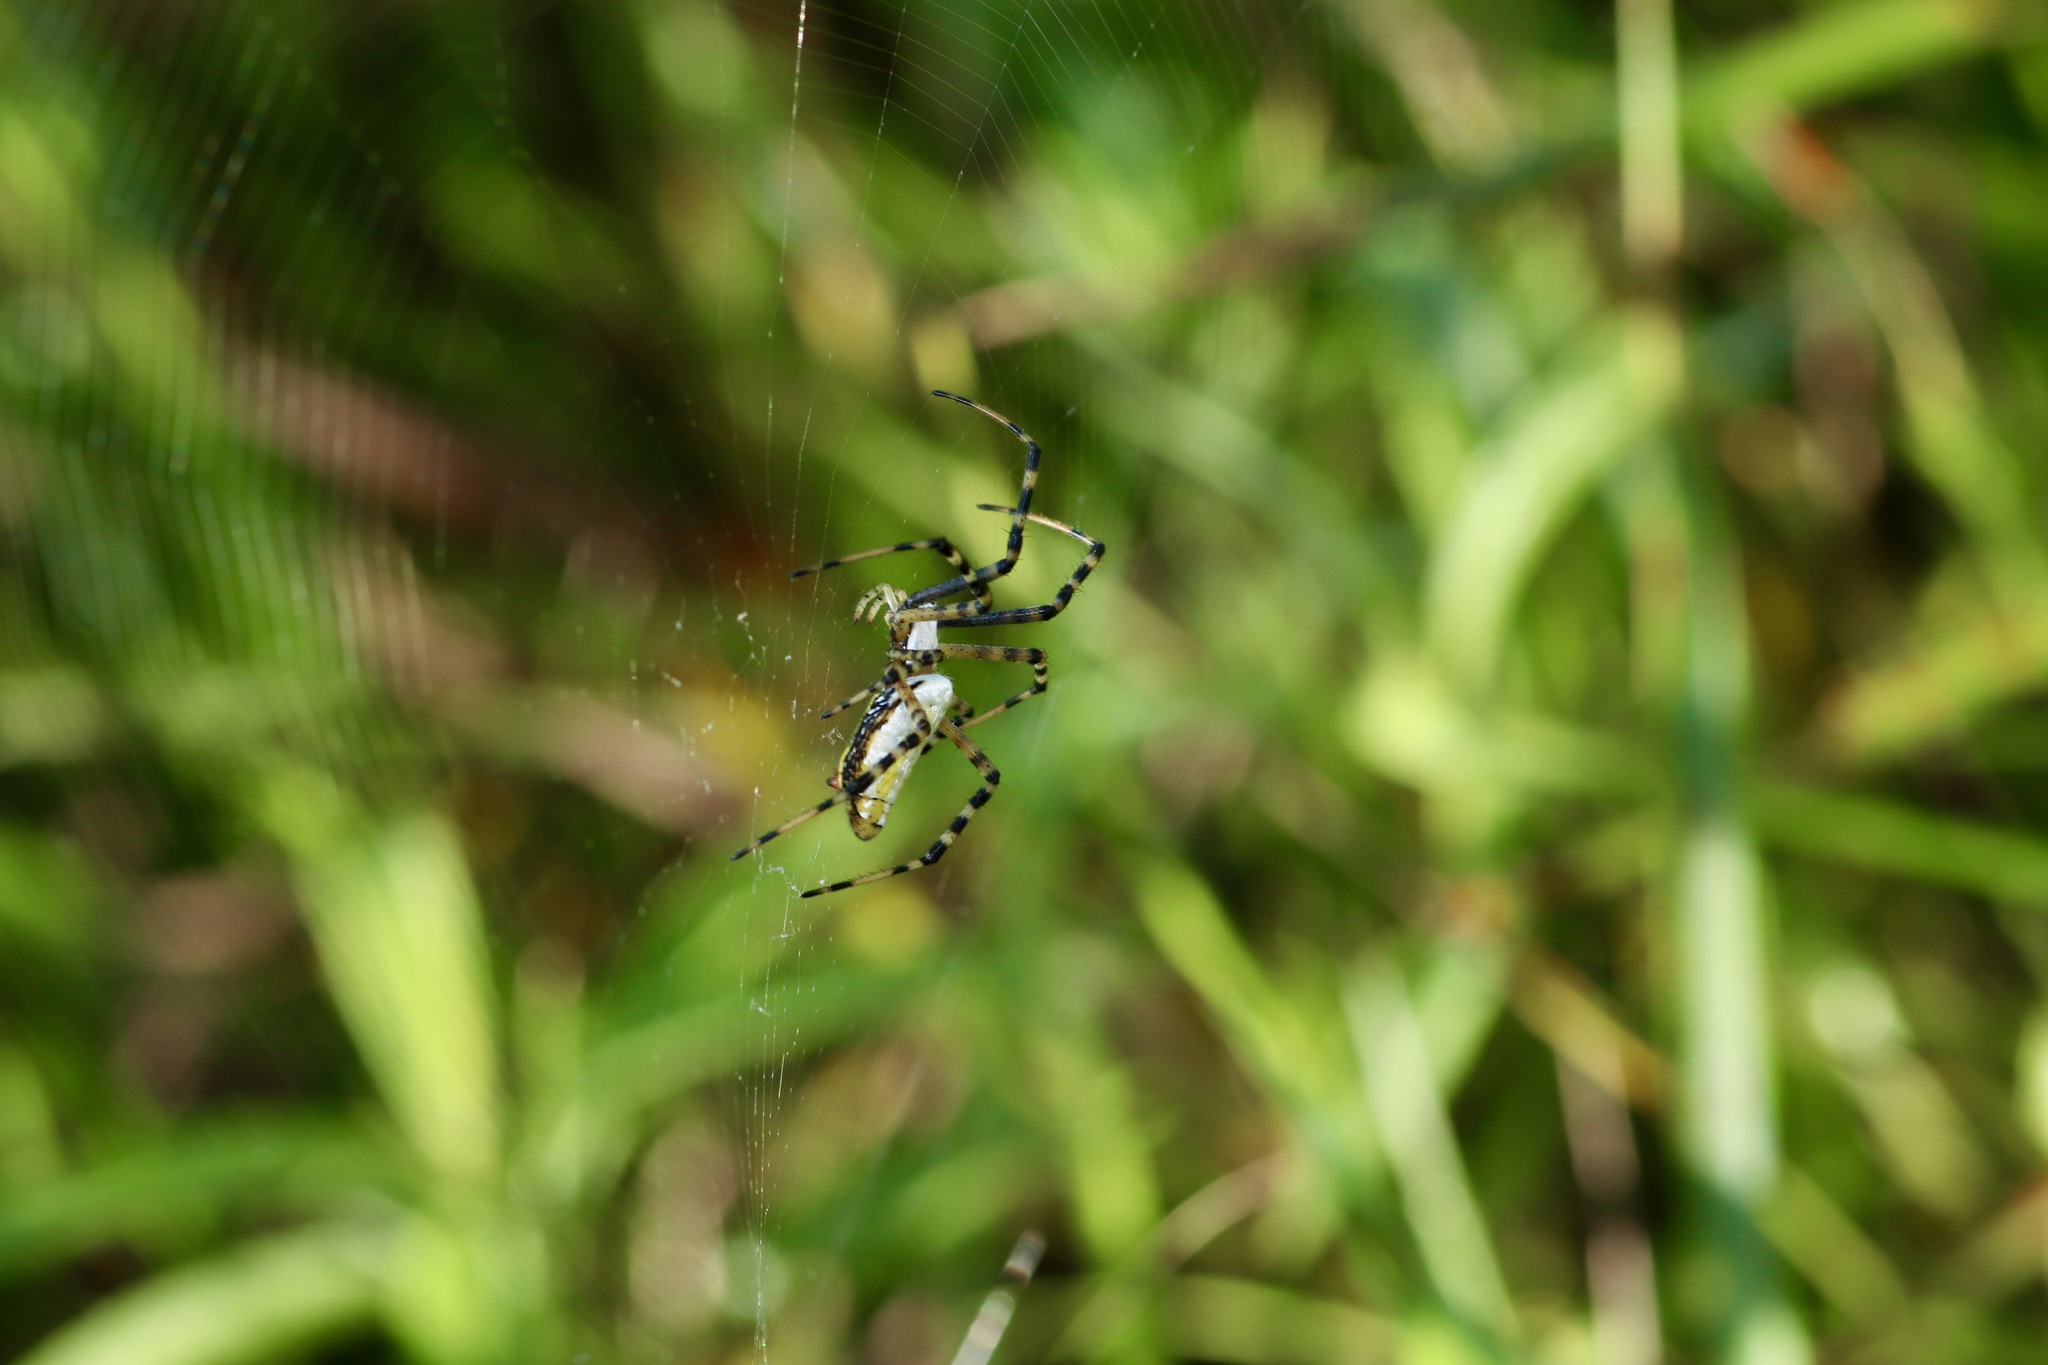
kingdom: Animalia
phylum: Arthropoda
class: Arachnida
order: Araneae
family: Araneidae
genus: Argiope
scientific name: Argiope trifasciata
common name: Banded garden spider
